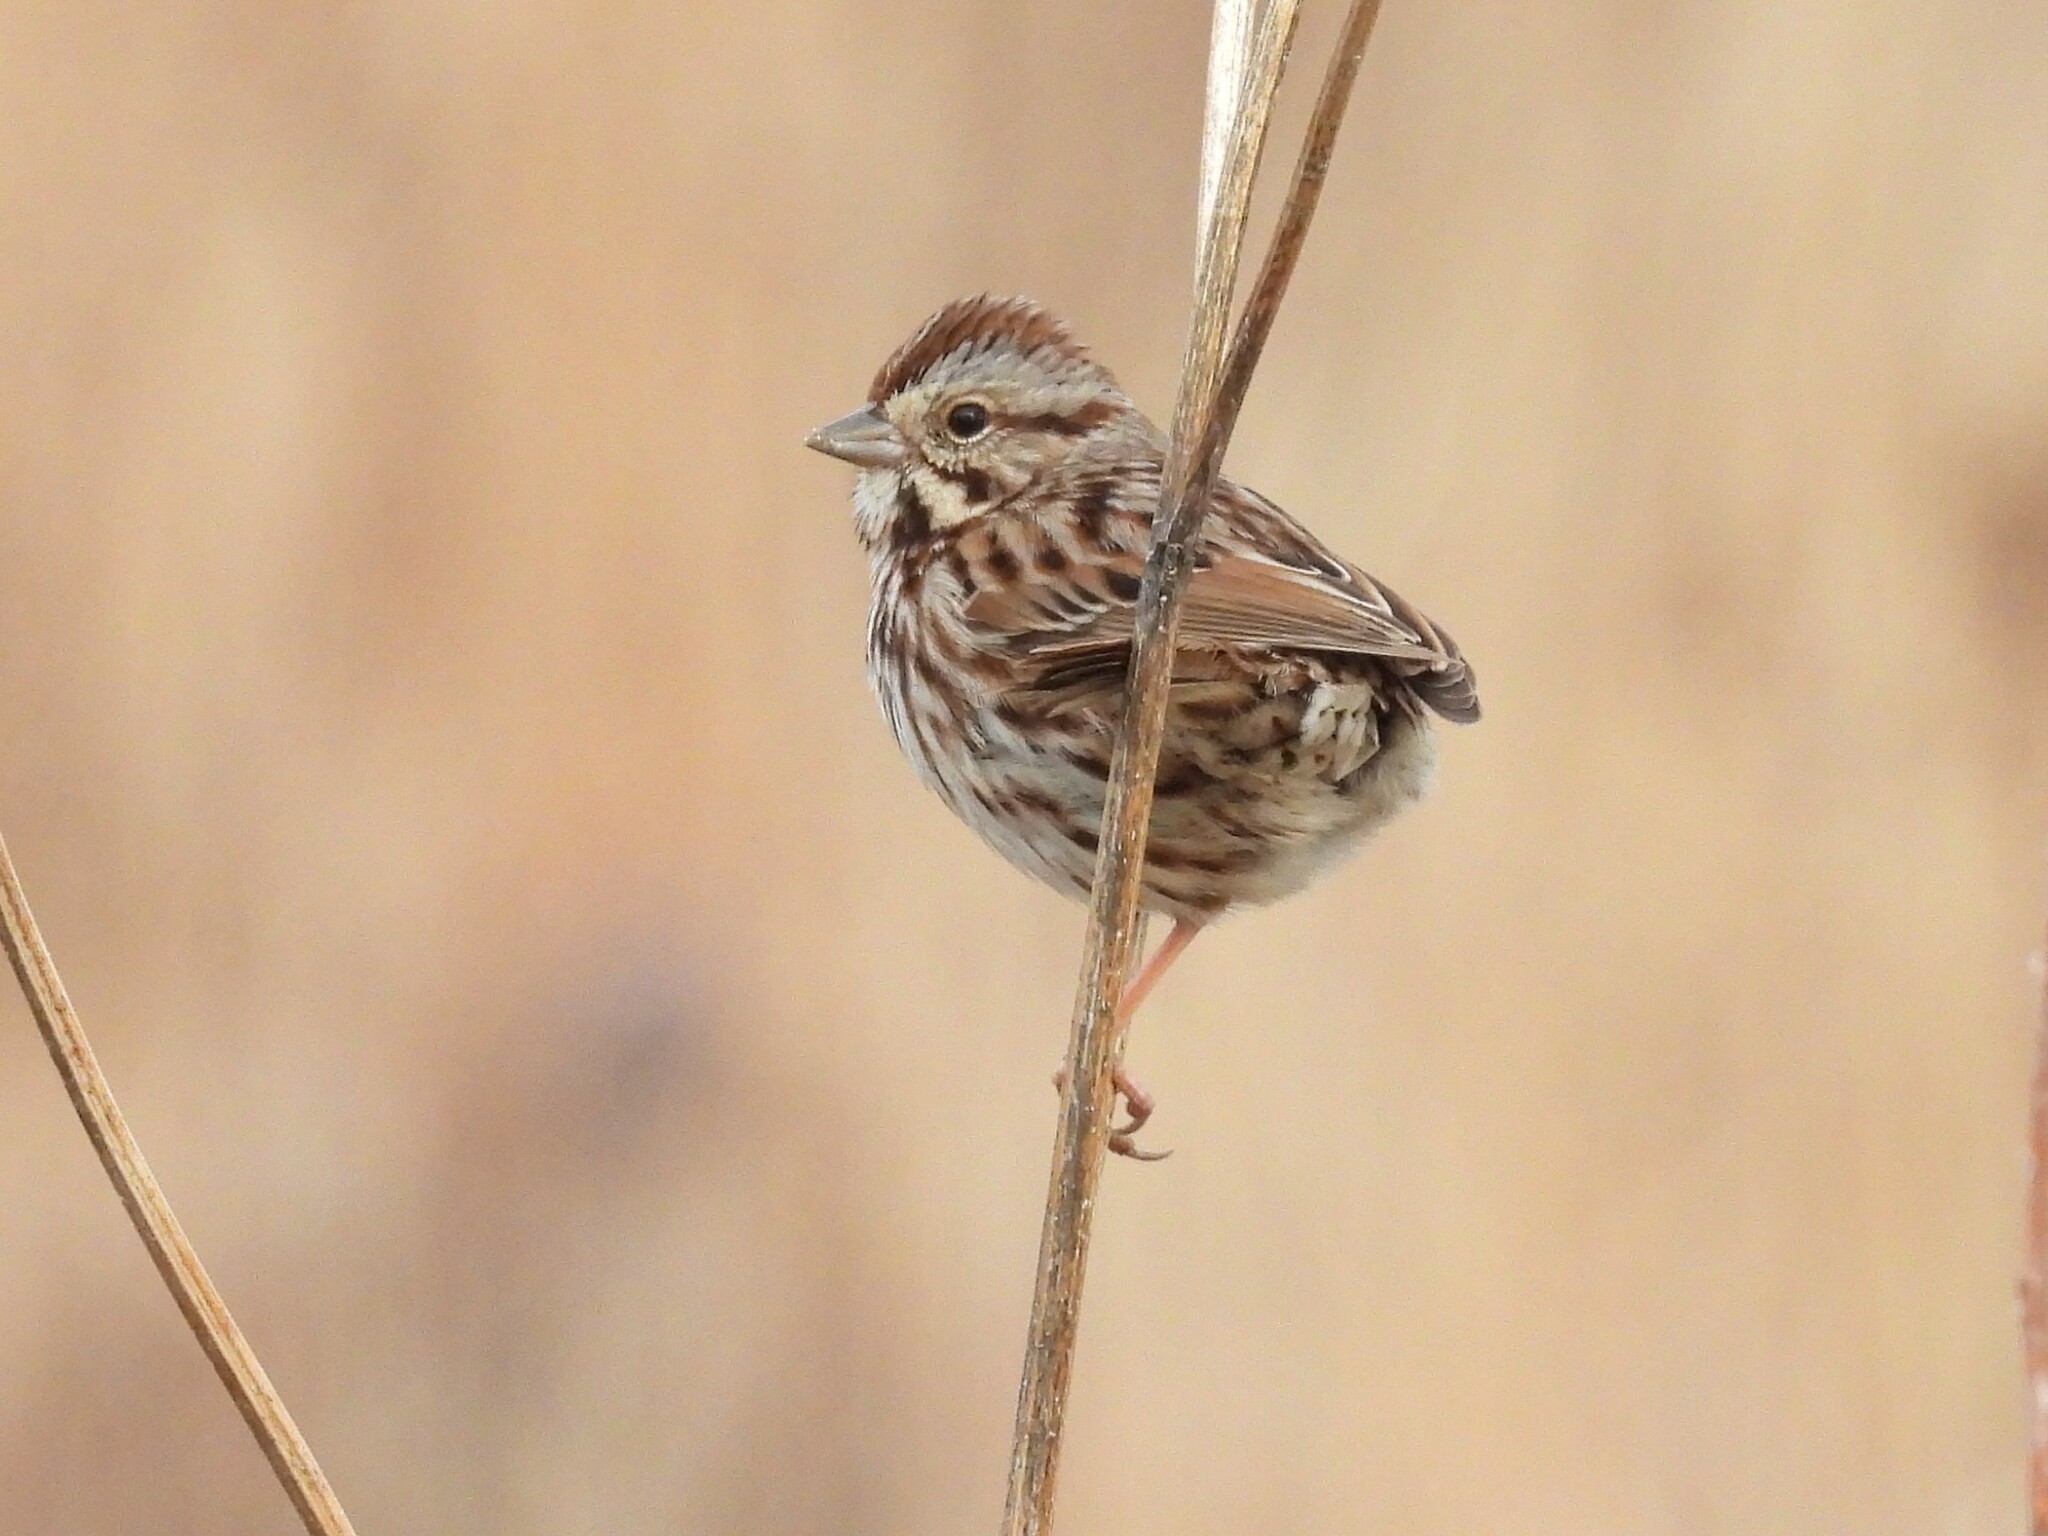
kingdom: Animalia
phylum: Chordata
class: Aves
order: Passeriformes
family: Passerellidae
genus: Melospiza
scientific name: Melospiza melodia
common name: Song sparrow
